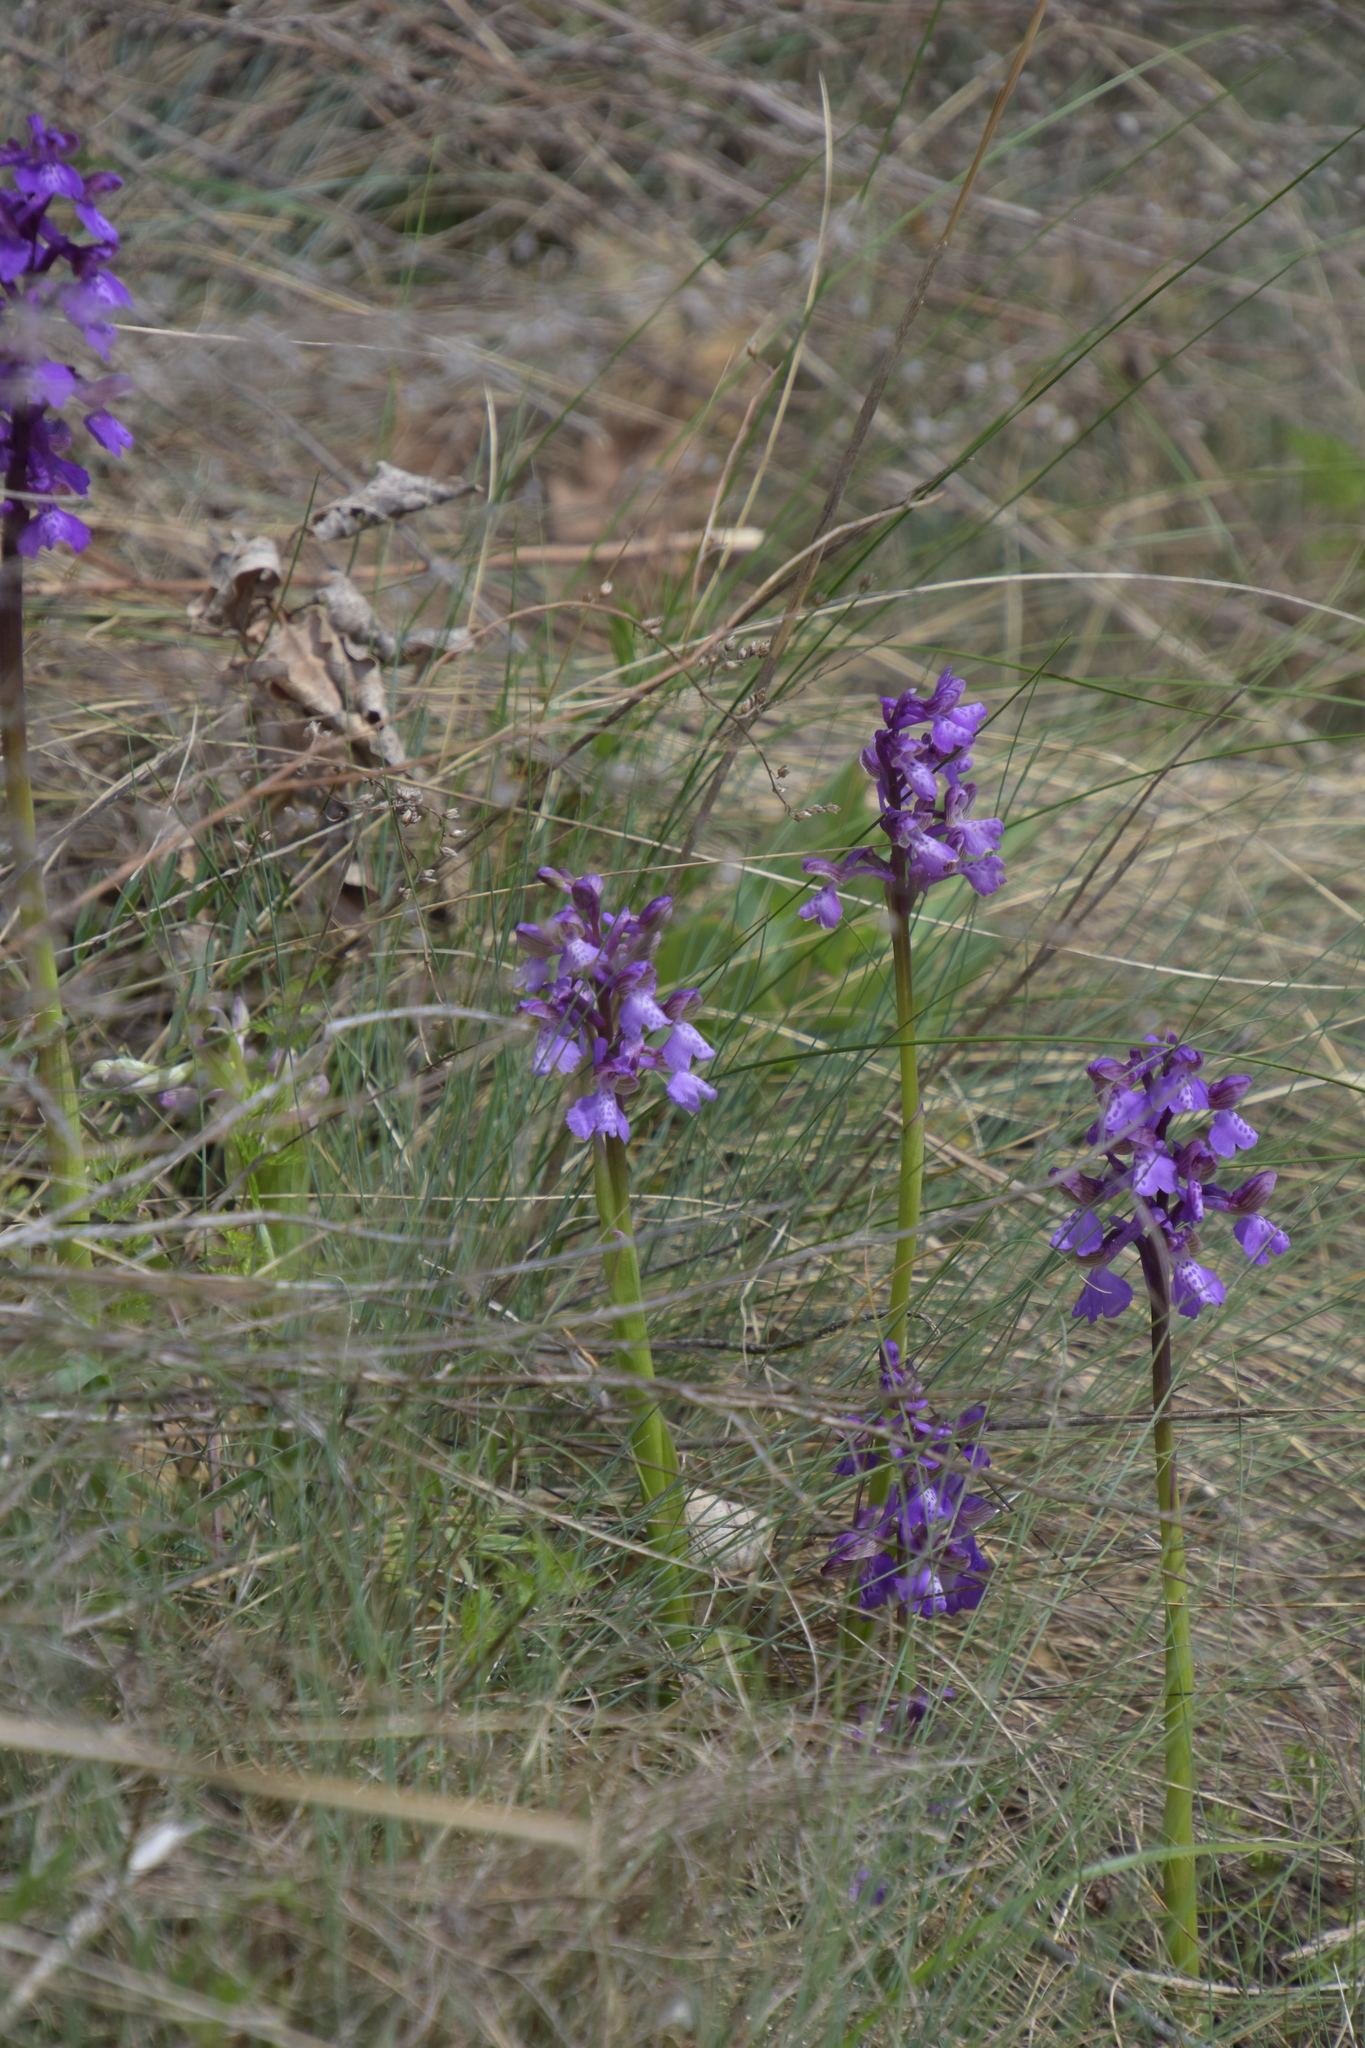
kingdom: Plantae
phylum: Tracheophyta
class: Liliopsida
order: Asparagales
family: Orchidaceae
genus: Anacamptis
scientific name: Anacamptis morio
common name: Green-winged orchid
